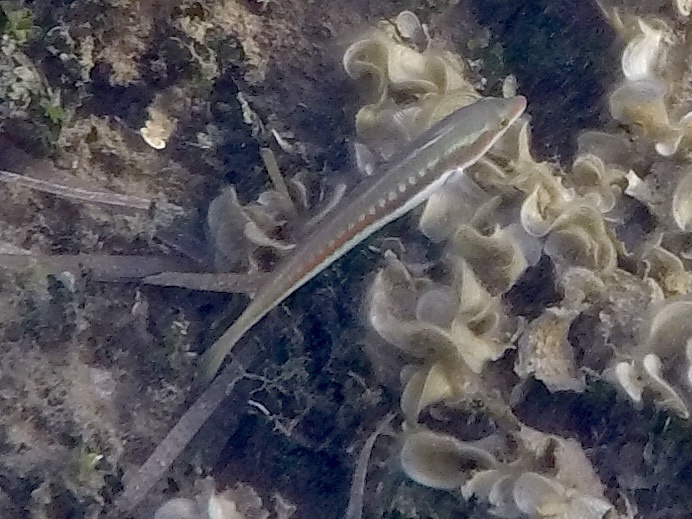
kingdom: Animalia
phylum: Chordata
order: Perciformes
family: Labridae
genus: Coris
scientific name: Coris julis
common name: Rainbow wrasse
